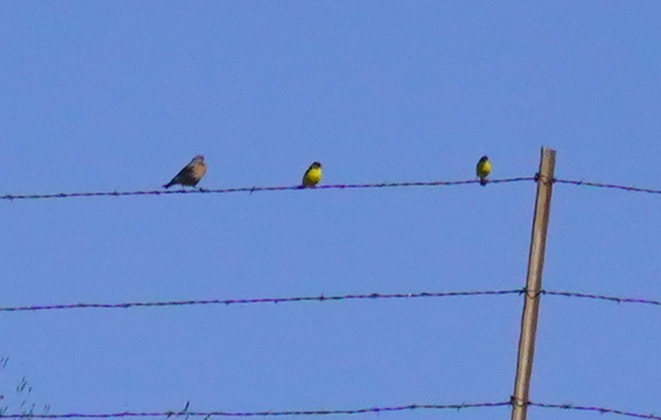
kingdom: Animalia
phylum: Chordata
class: Aves
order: Passeriformes
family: Fringillidae
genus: Spinus
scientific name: Spinus psaltria
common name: Lesser goldfinch
